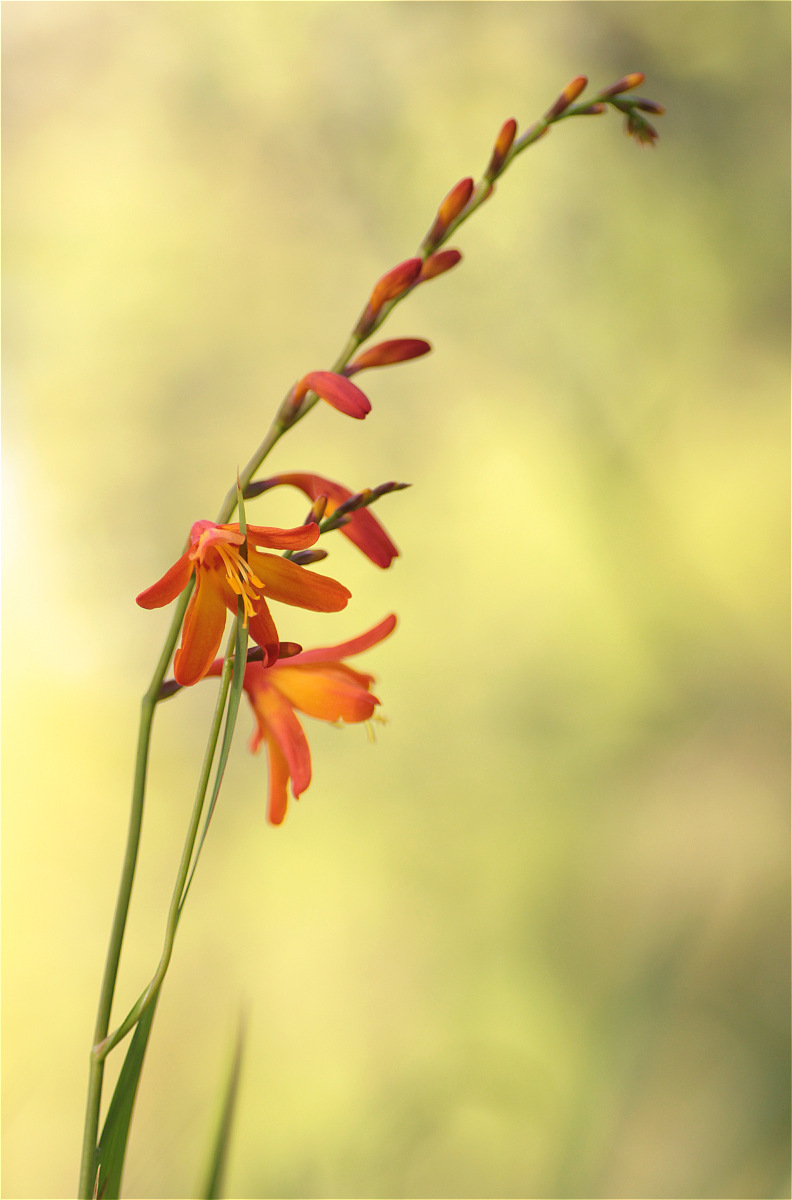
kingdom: Plantae
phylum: Tracheophyta
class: Liliopsida
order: Asparagales
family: Iridaceae
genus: Crocosmia
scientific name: Crocosmia crocosmiiflora
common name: Montbretia
